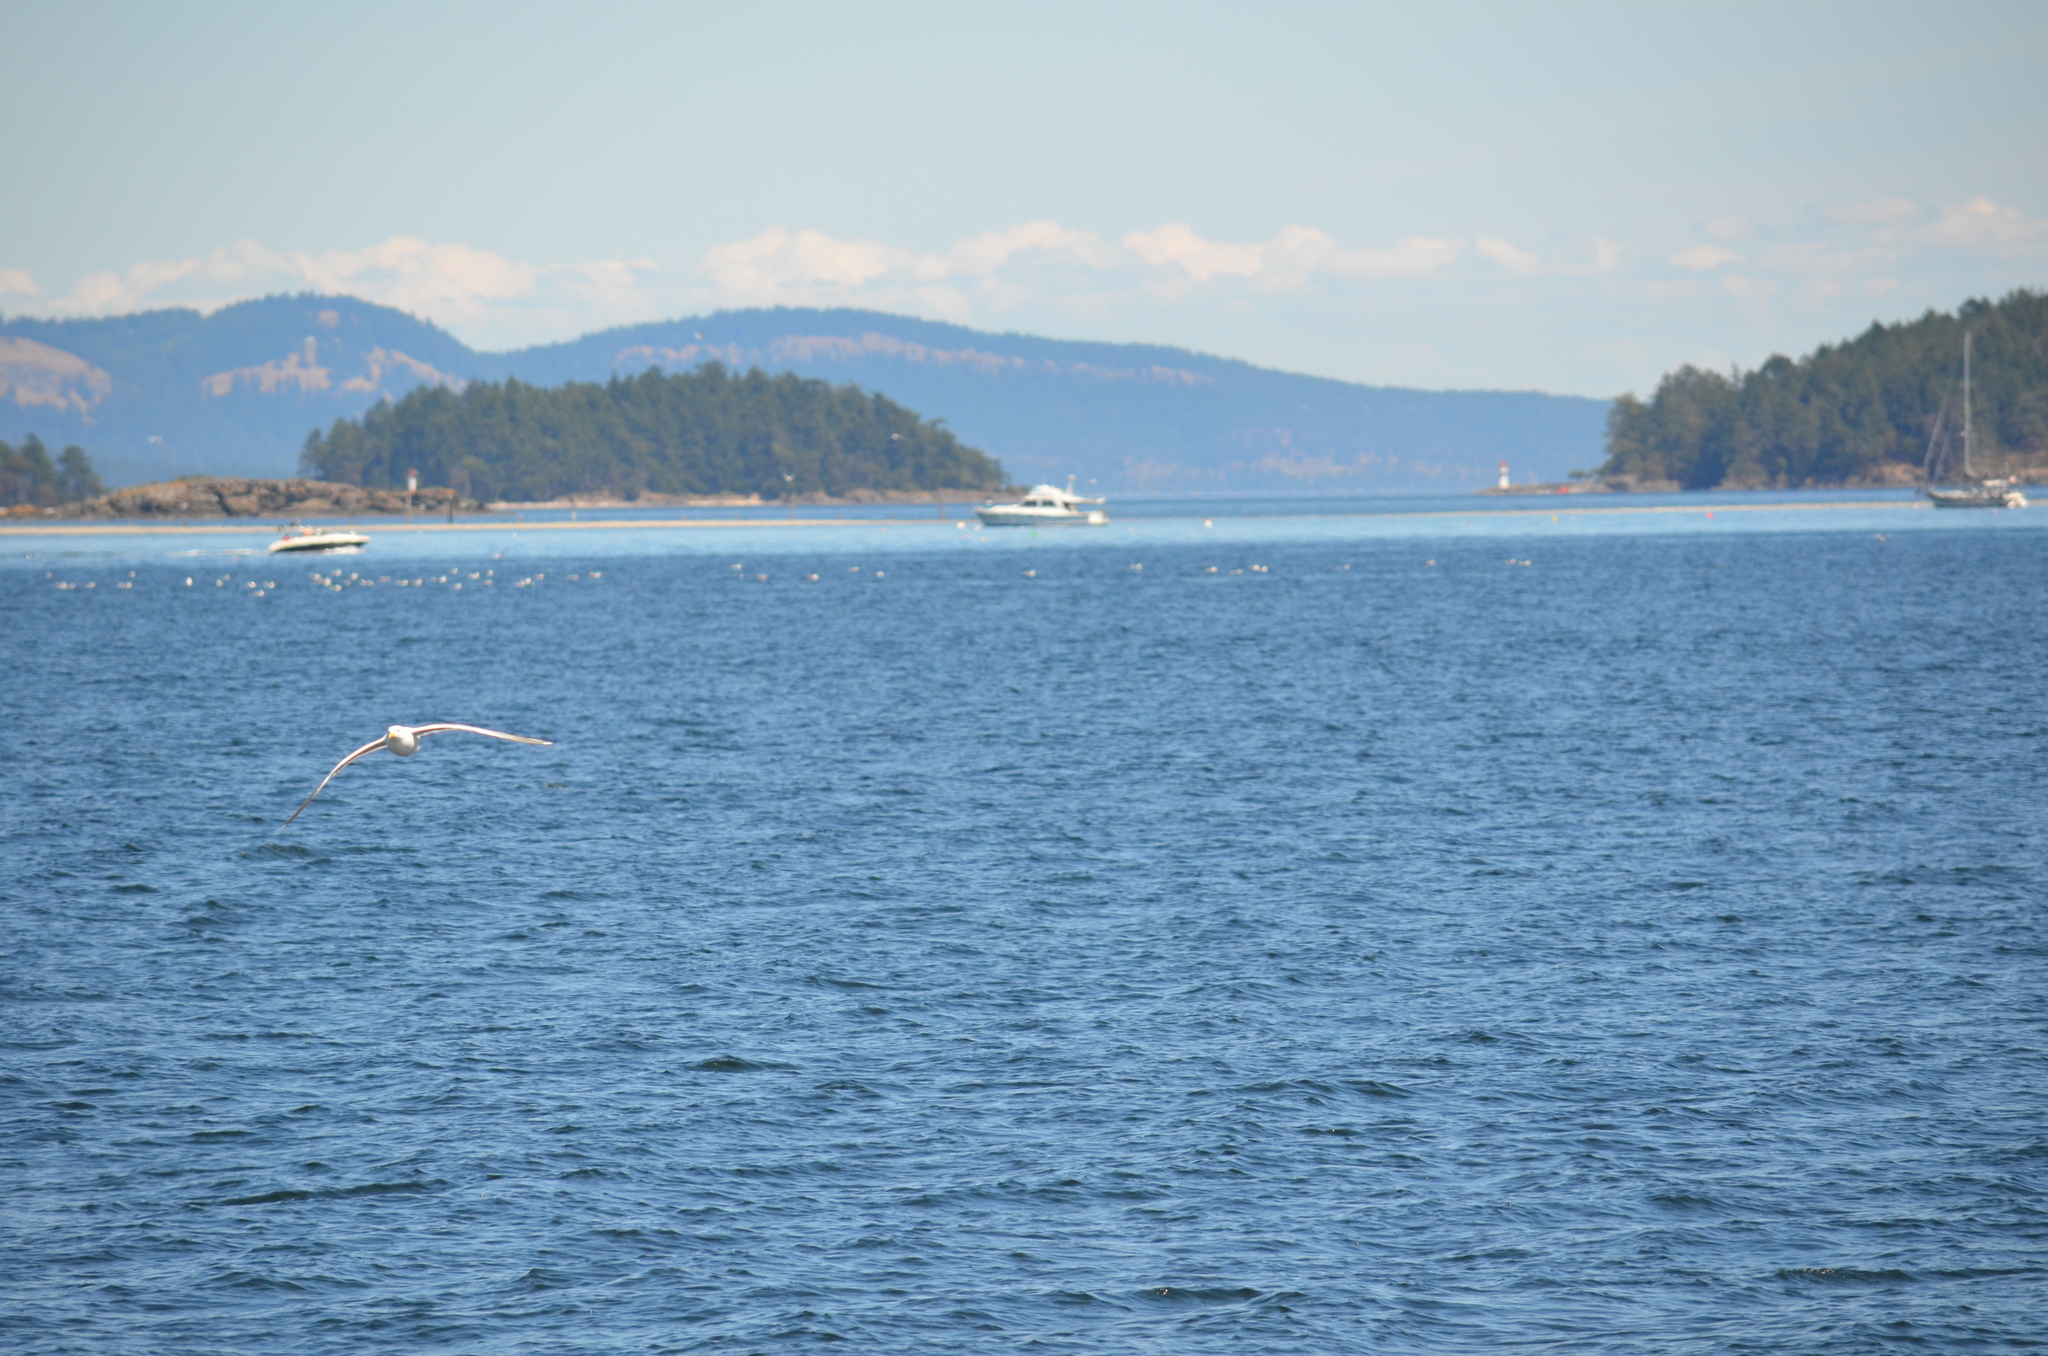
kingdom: Animalia
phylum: Chordata
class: Aves
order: Charadriiformes
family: Laridae
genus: Larus
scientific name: Larus glaucescens
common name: Glaucous-winged gull
